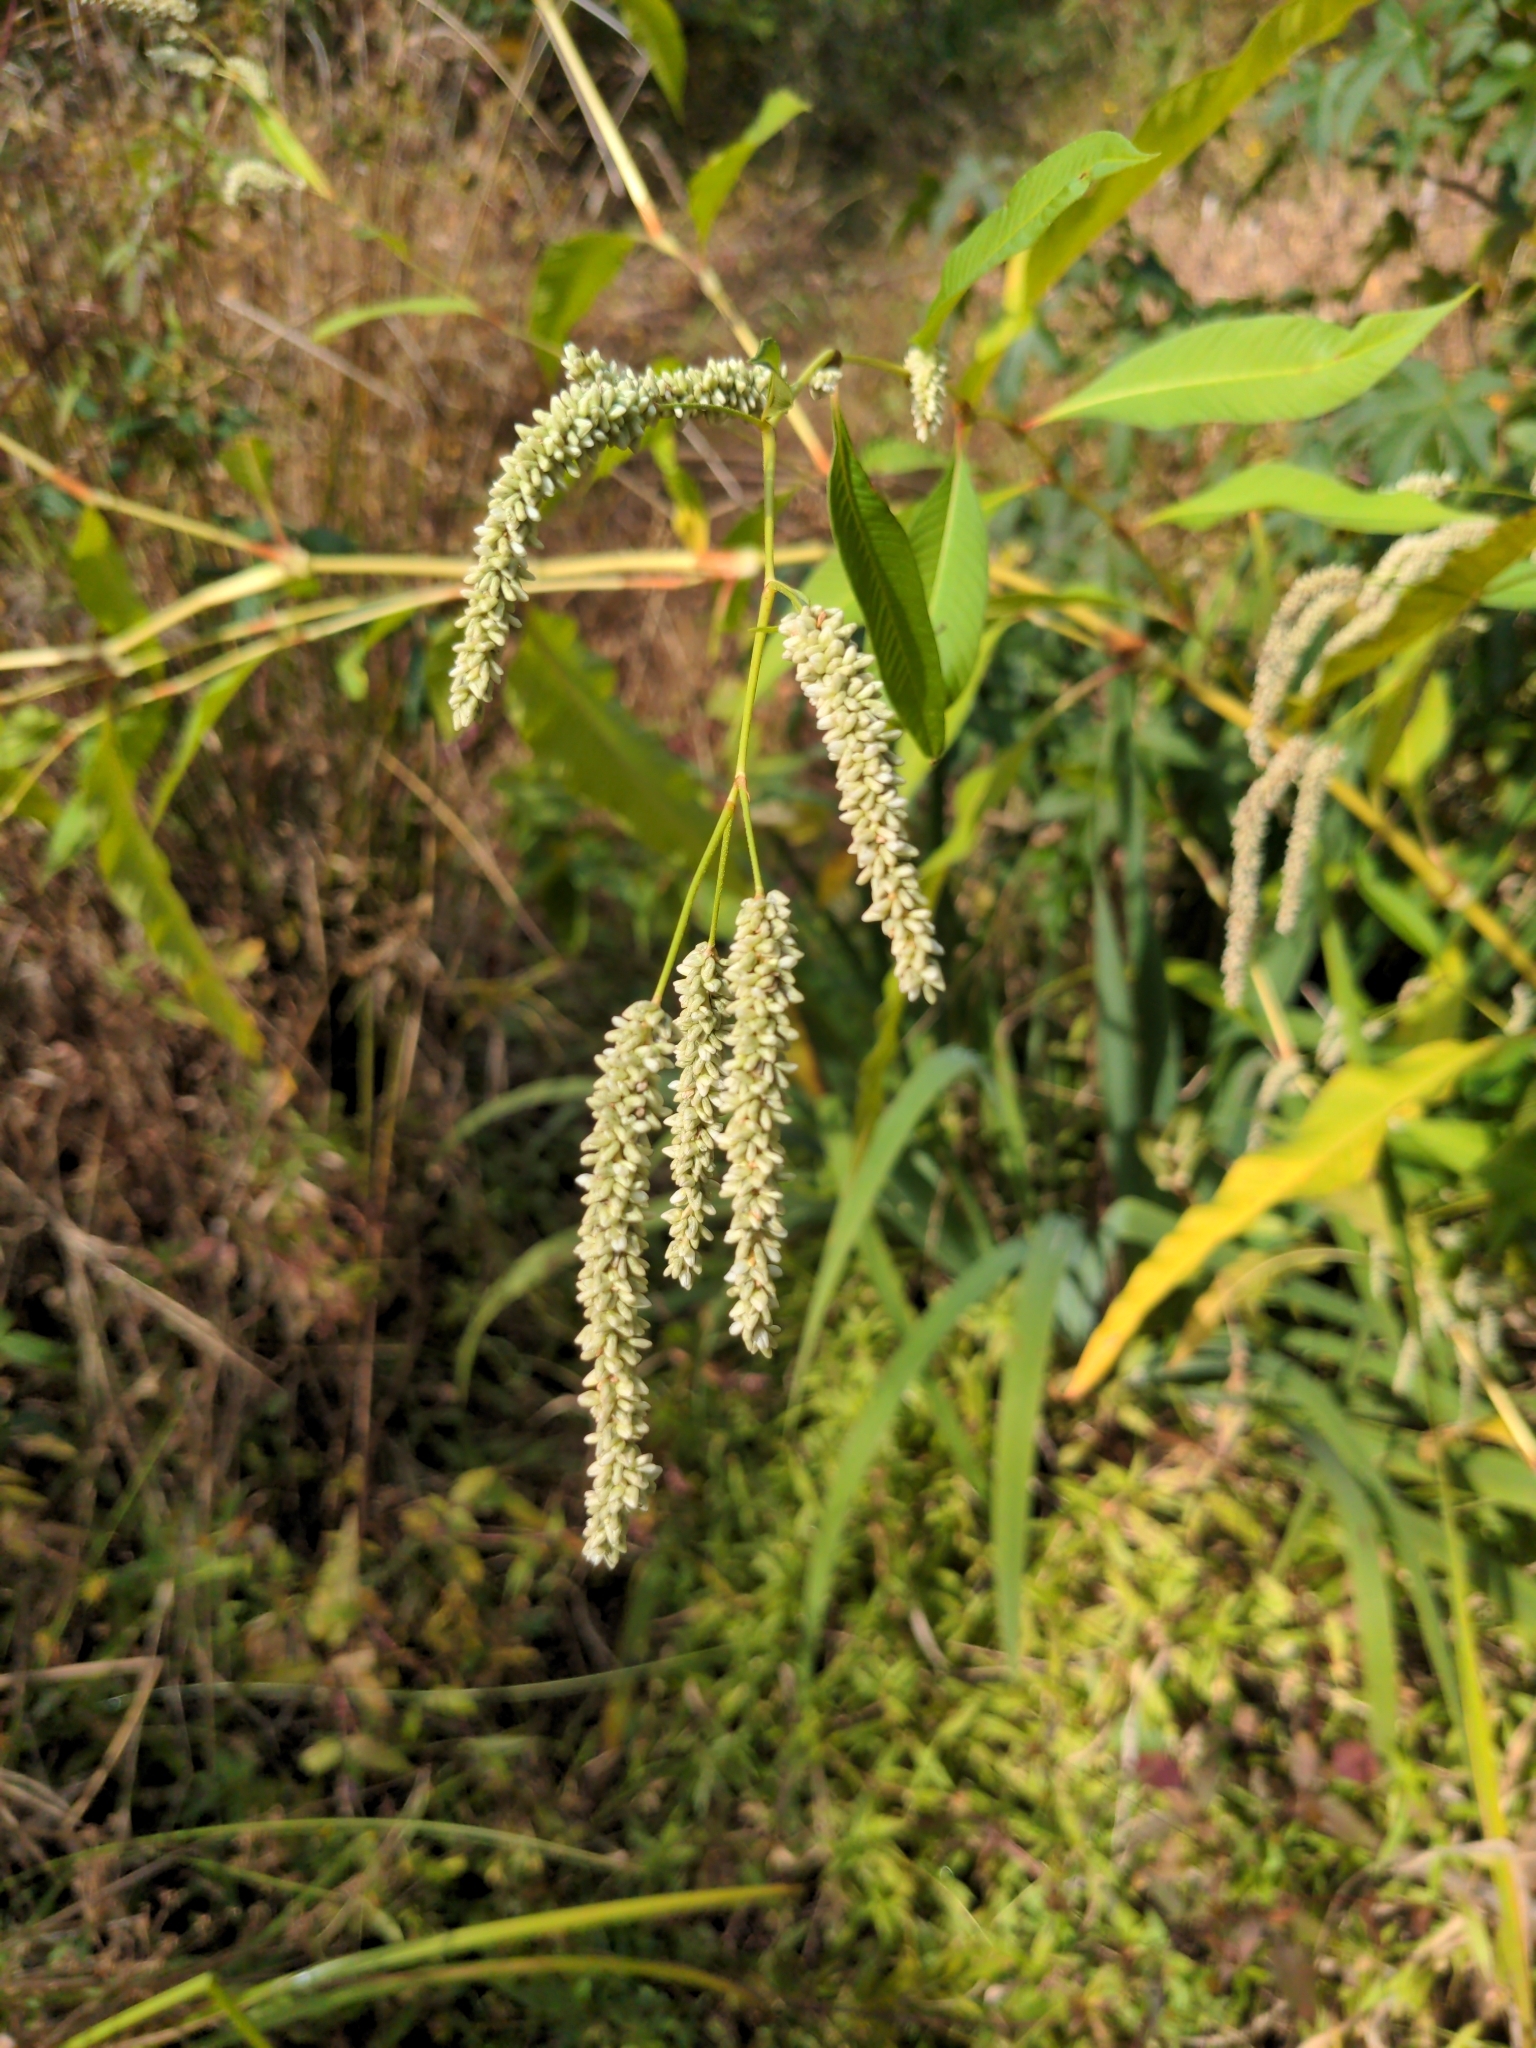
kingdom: Plantae
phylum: Tracheophyta
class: Magnoliopsida
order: Caryophyllales
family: Polygonaceae
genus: Persicaria
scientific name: Persicaria lapathifolia
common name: Curlytop knotweed
